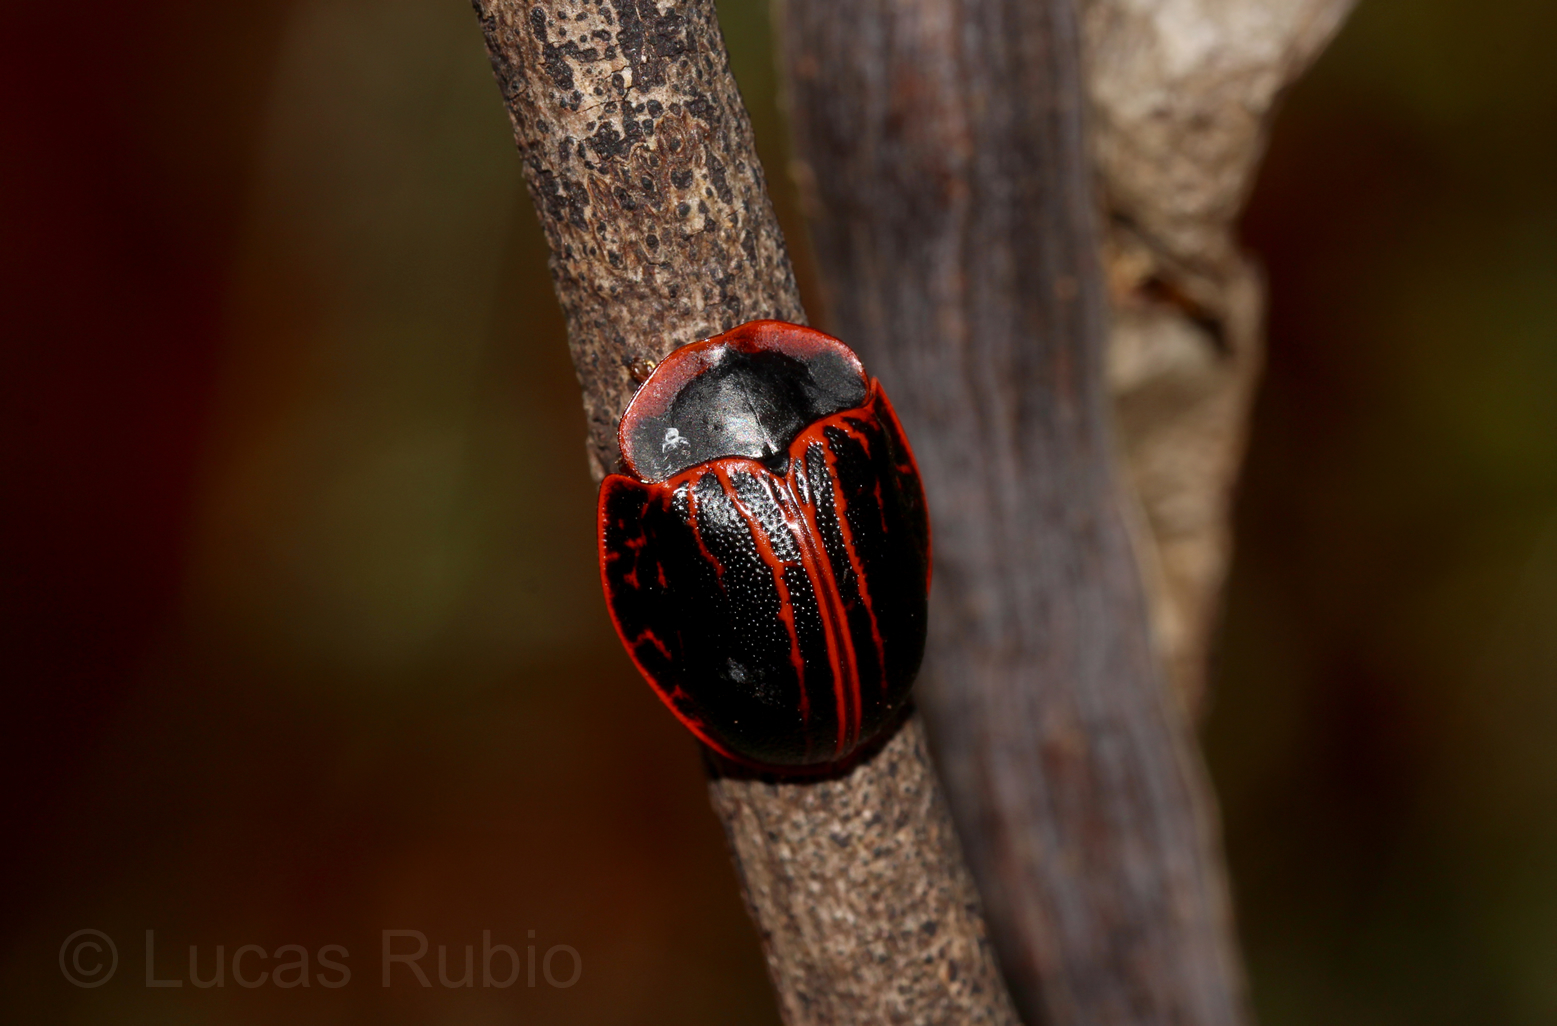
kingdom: Animalia
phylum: Arthropoda
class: Insecta
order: Coleoptera
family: Chrysomelidae
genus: Botanochara
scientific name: Botanochara bonariensis
